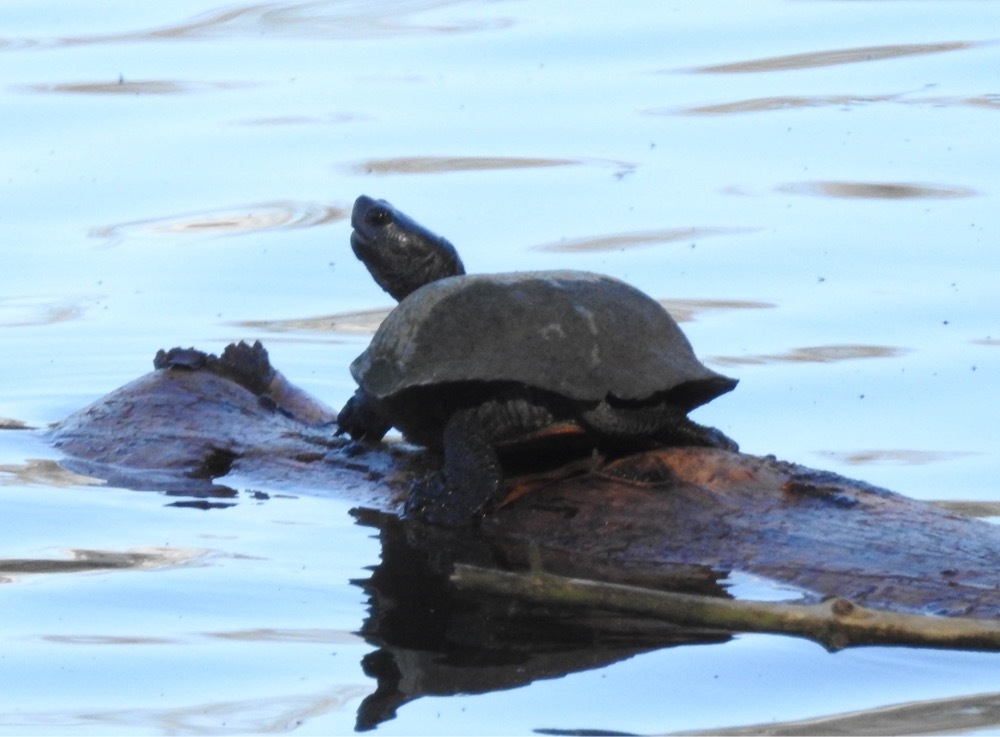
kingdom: Animalia
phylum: Chordata
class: Testudines
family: Emydidae
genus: Trachemys
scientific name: Trachemys scripta
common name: Slider
